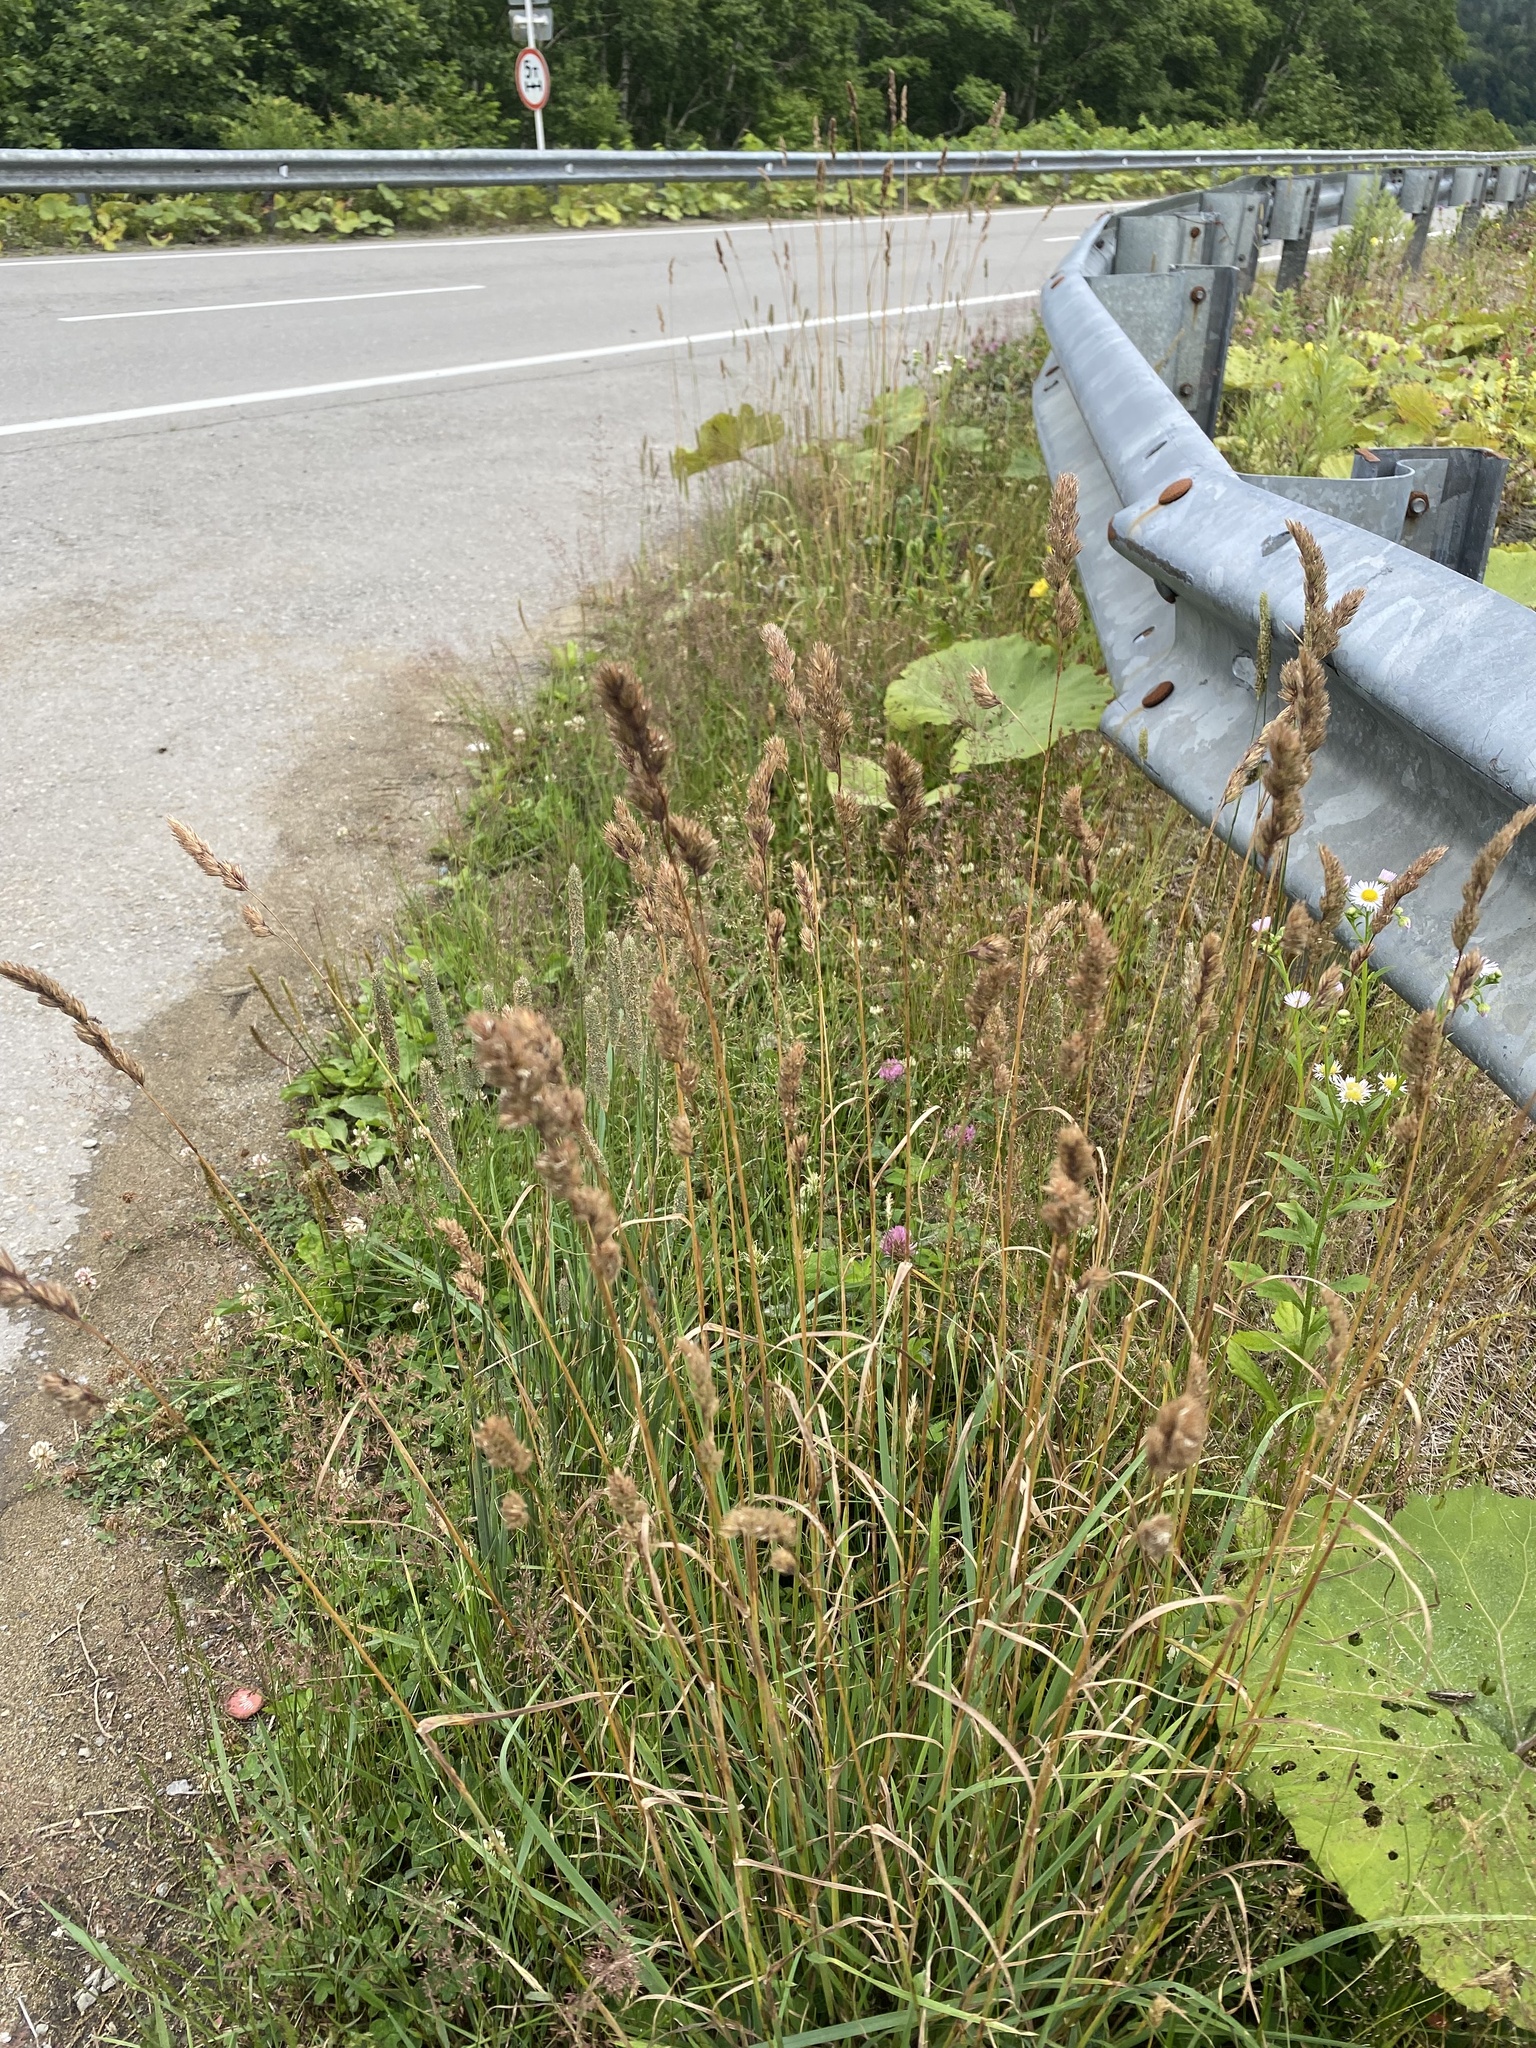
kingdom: Plantae
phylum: Tracheophyta
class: Liliopsida
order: Poales
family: Poaceae
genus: Dactylis
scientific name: Dactylis glomerata
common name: Orchardgrass
